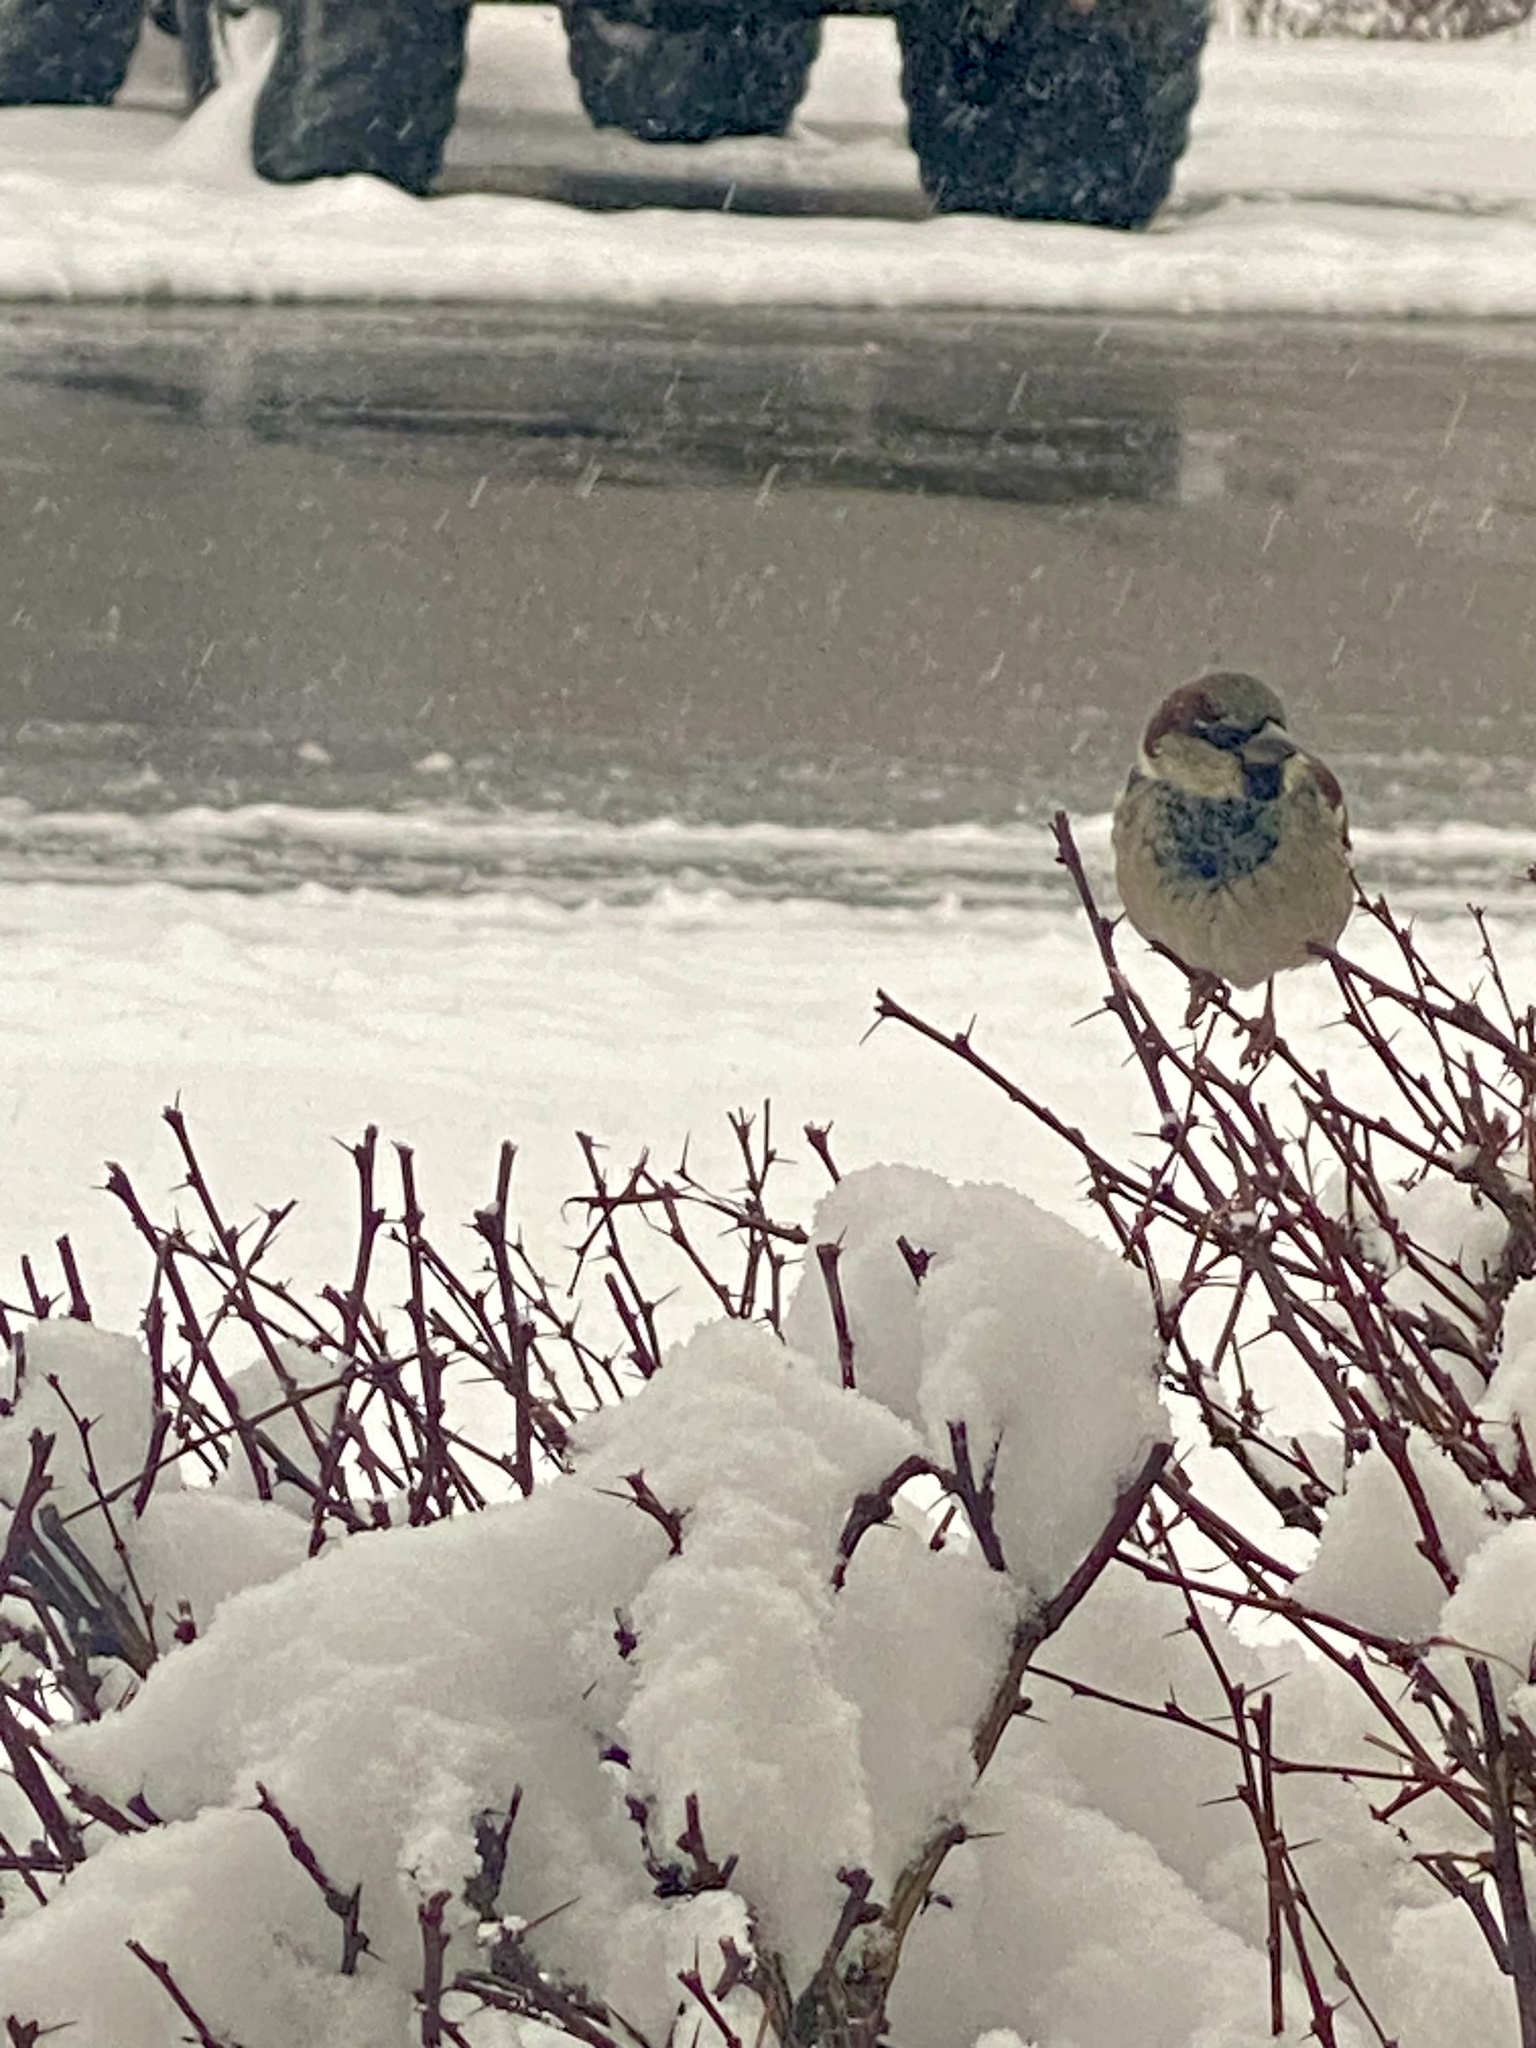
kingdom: Animalia
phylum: Chordata
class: Aves
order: Passeriformes
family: Passeridae
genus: Passer
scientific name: Passer domesticus
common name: House sparrow
